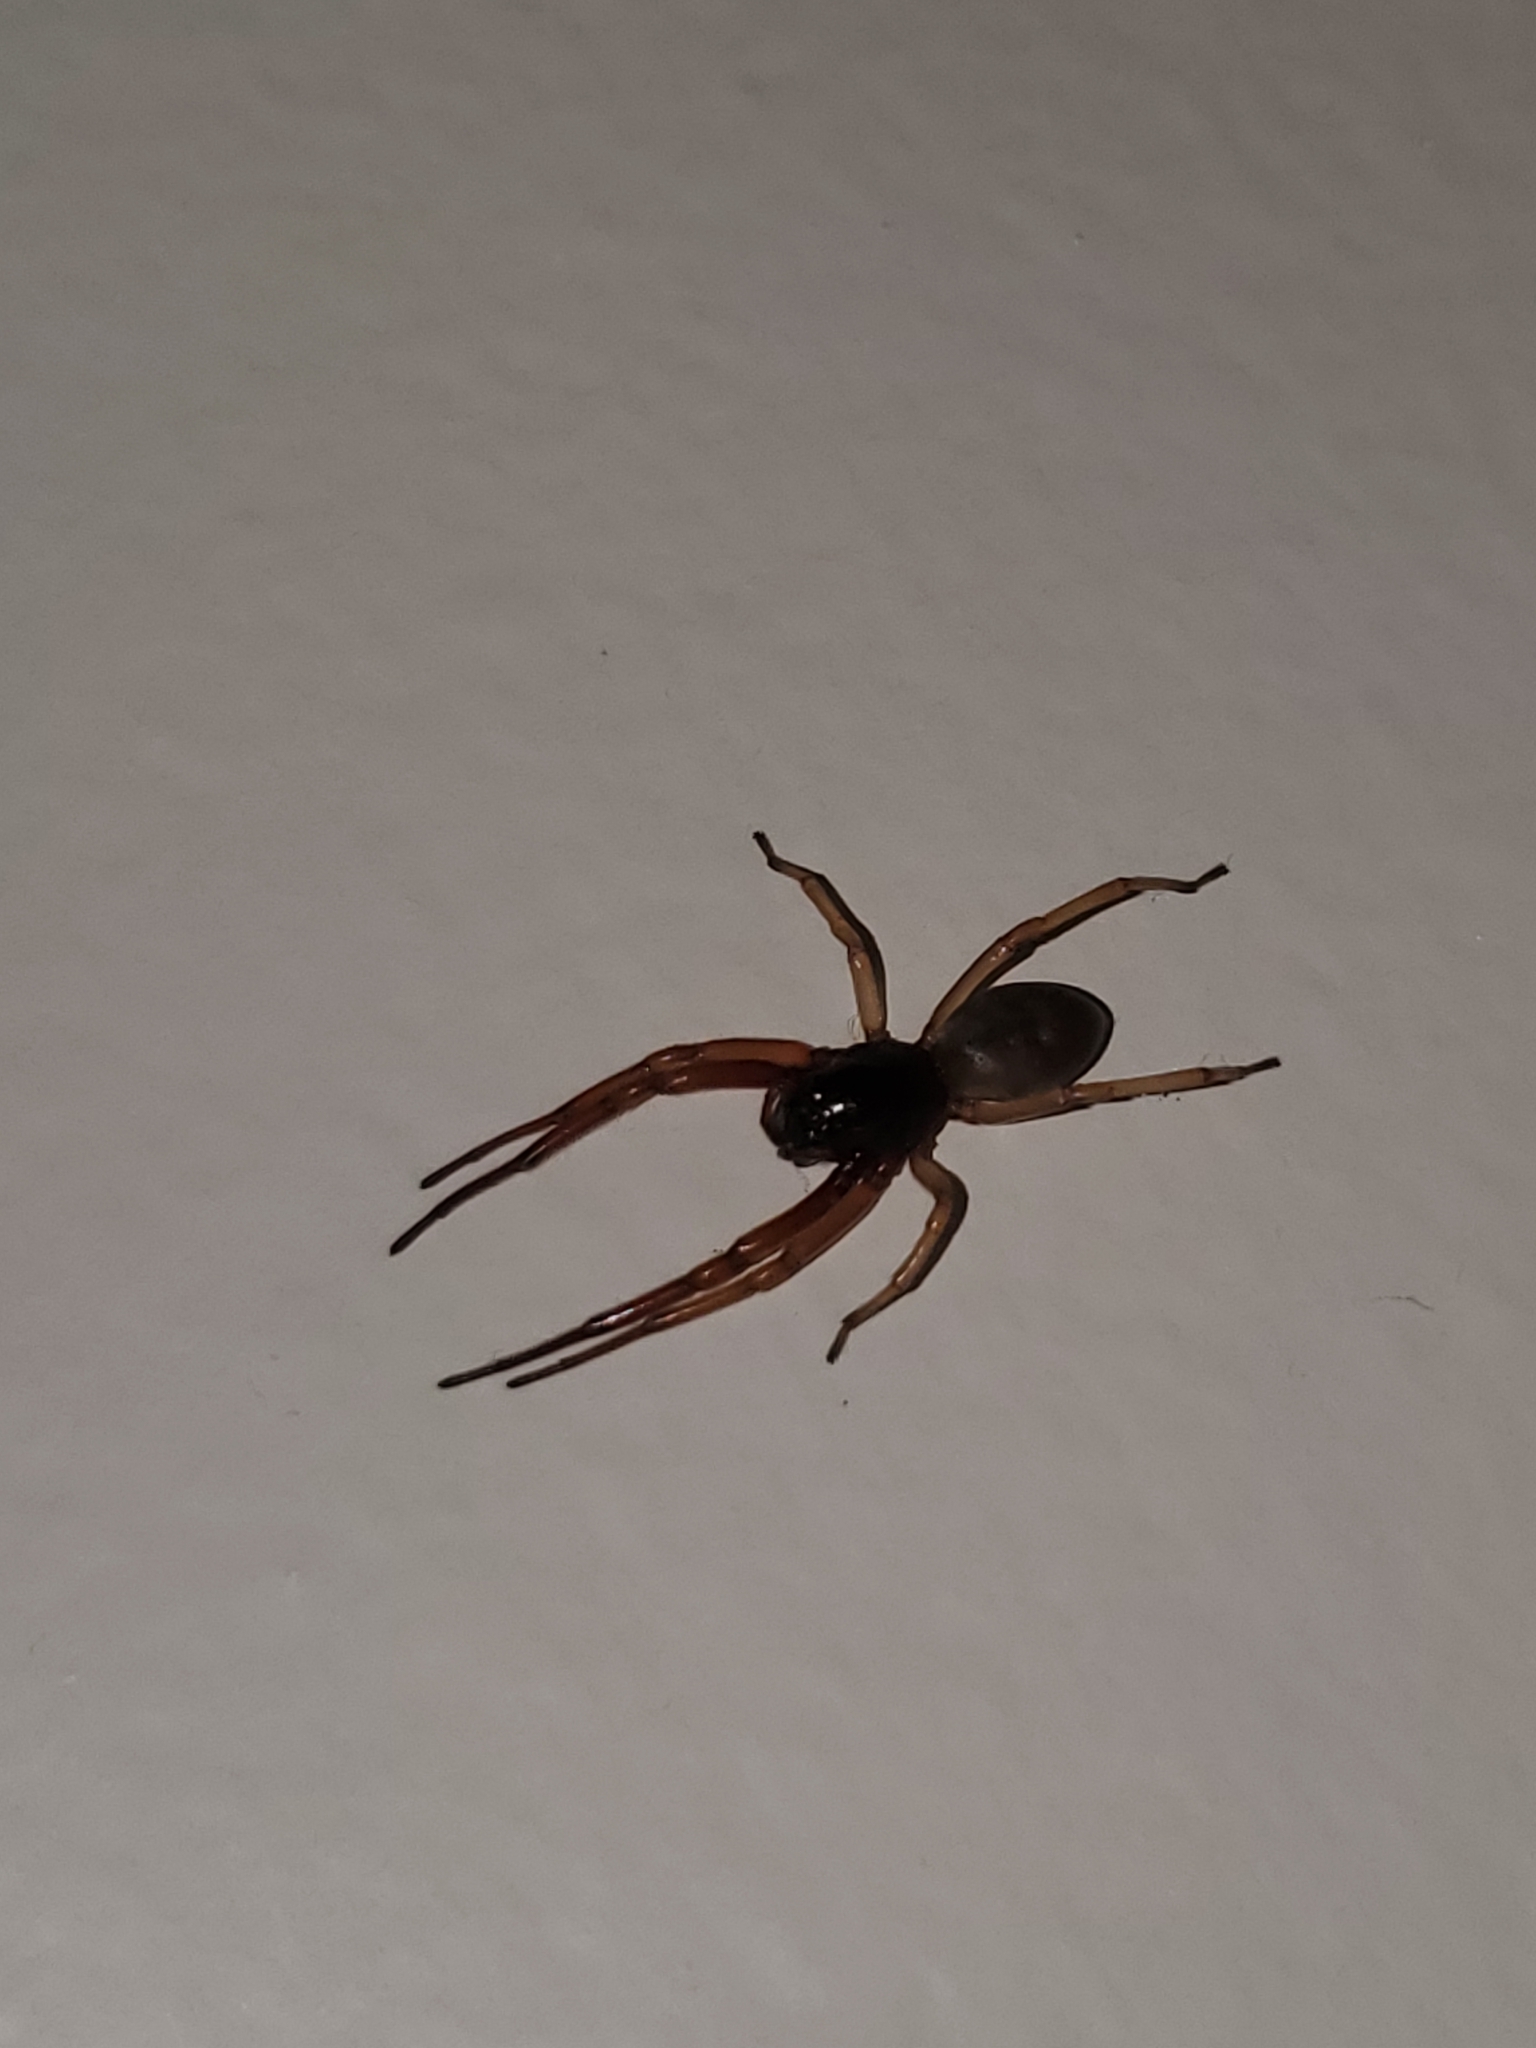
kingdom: Animalia
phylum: Arthropoda
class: Arachnida
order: Araneae
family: Trachelidae
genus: Trachelas
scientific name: Trachelas tranquillus
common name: Broad-faced sac spider
